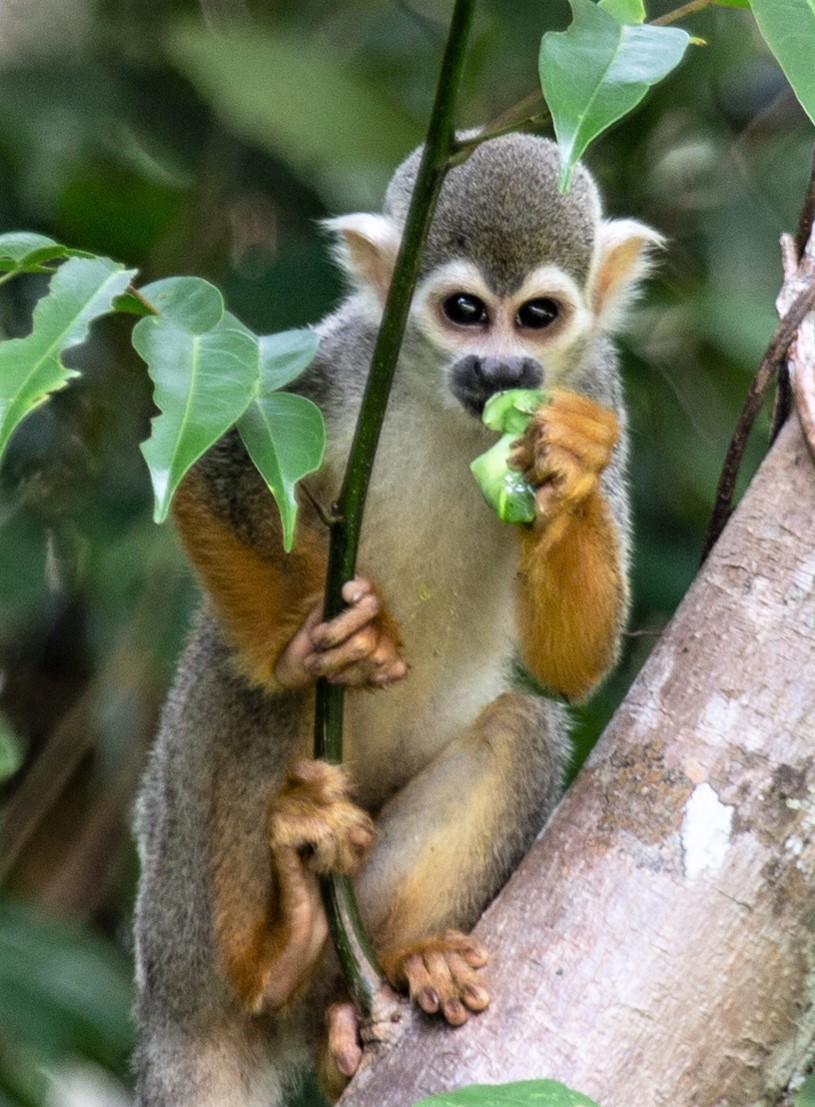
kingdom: Animalia
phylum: Chordata
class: Mammalia
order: Primates
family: Cebidae
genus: Saimiri
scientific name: Saimiri sciureus
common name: Common squirrel monkey
